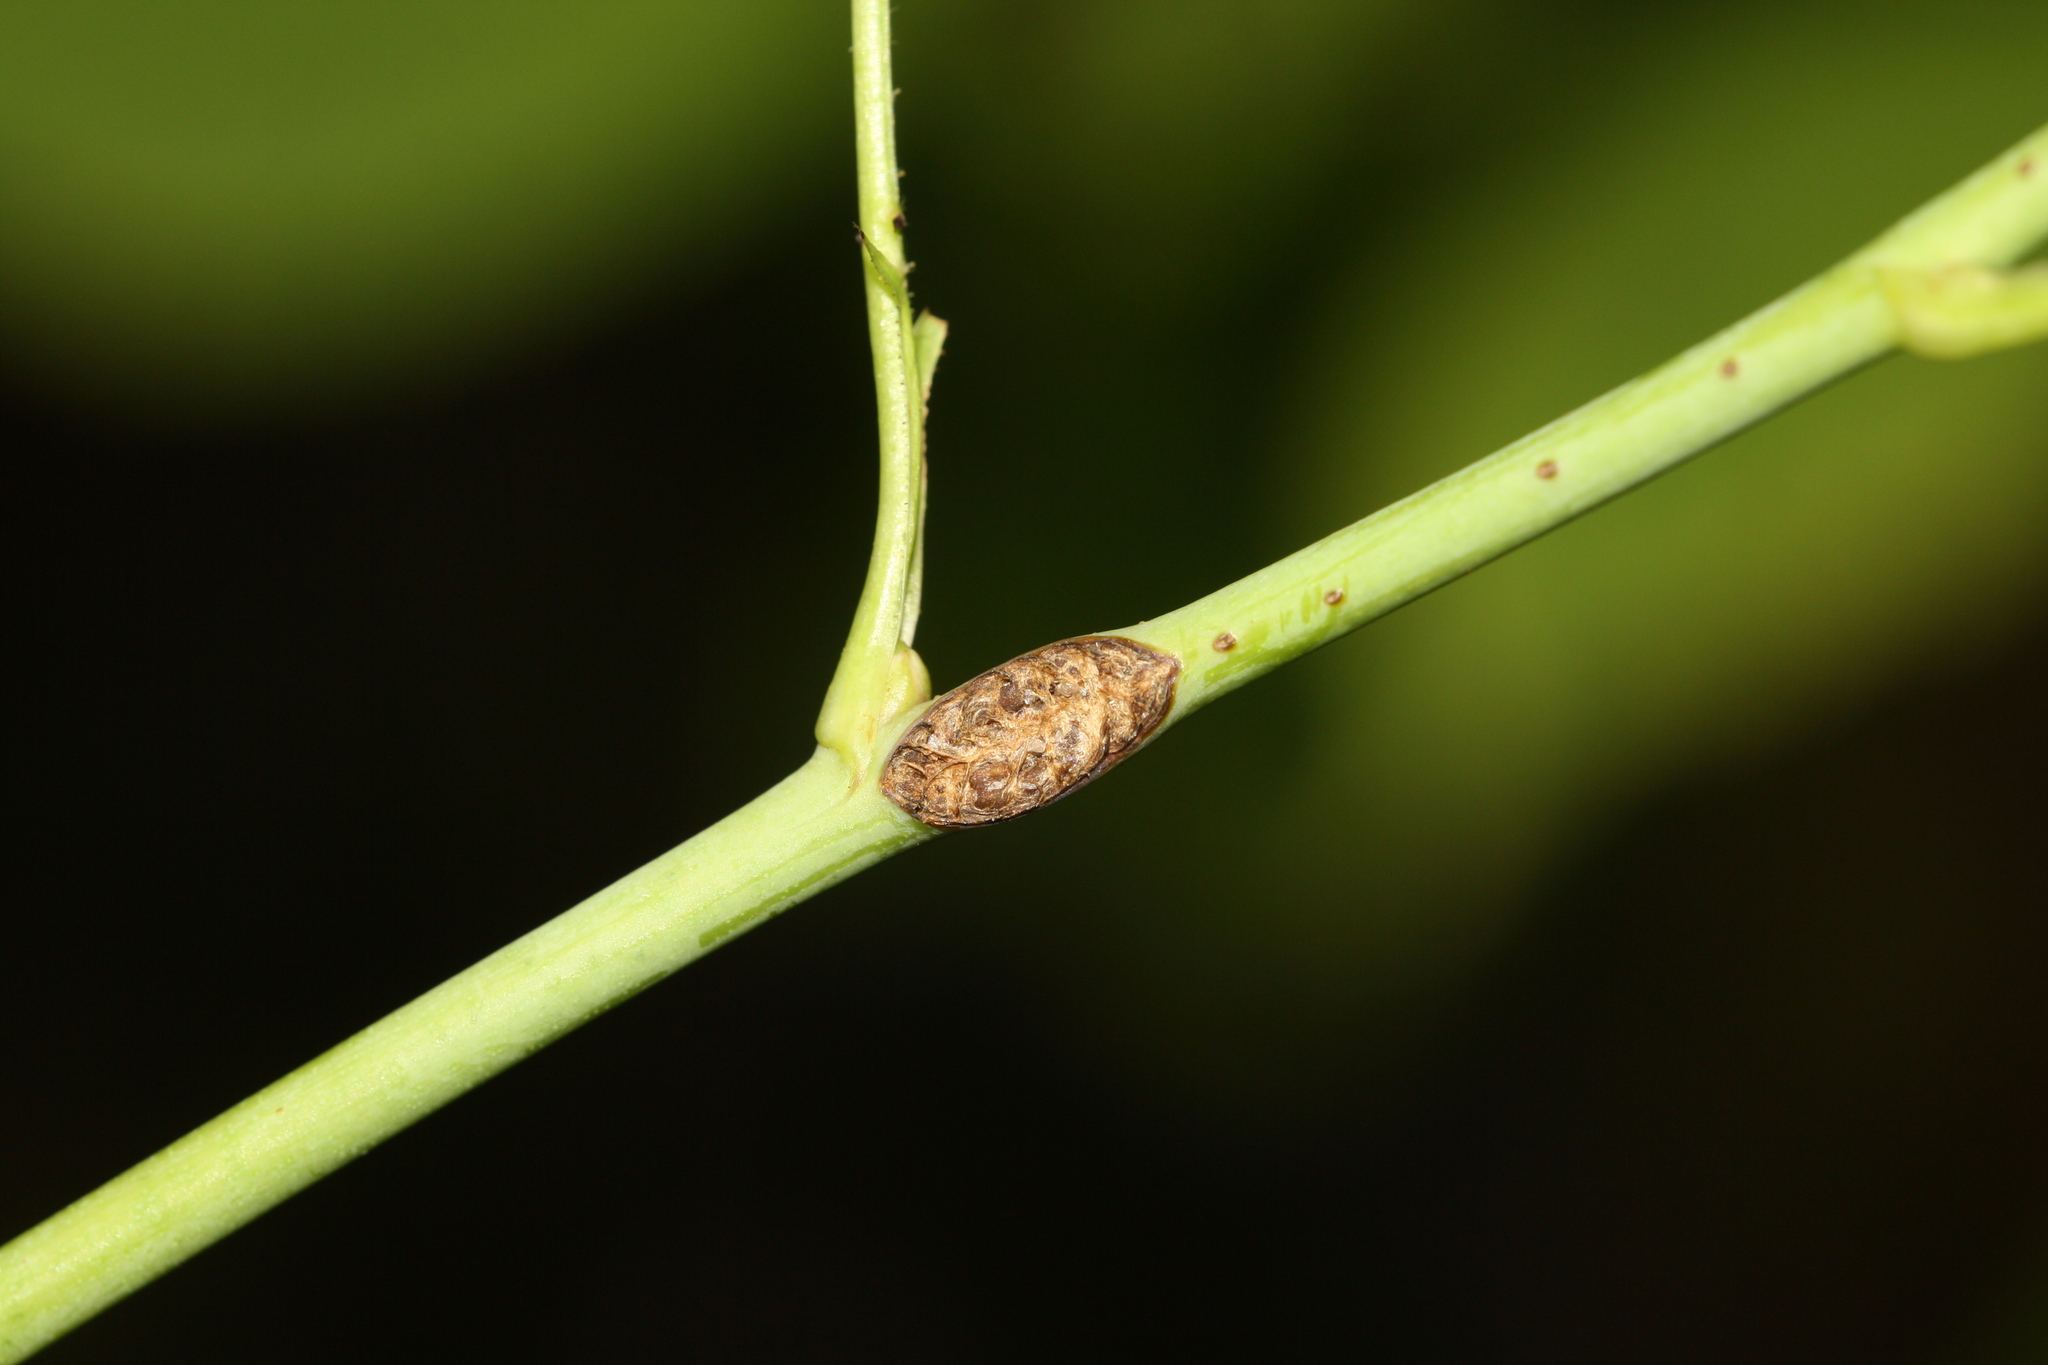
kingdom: Animalia
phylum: Arthropoda
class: Insecta
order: Hymenoptera
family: Argidae
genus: Arge
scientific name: Arge pagana
